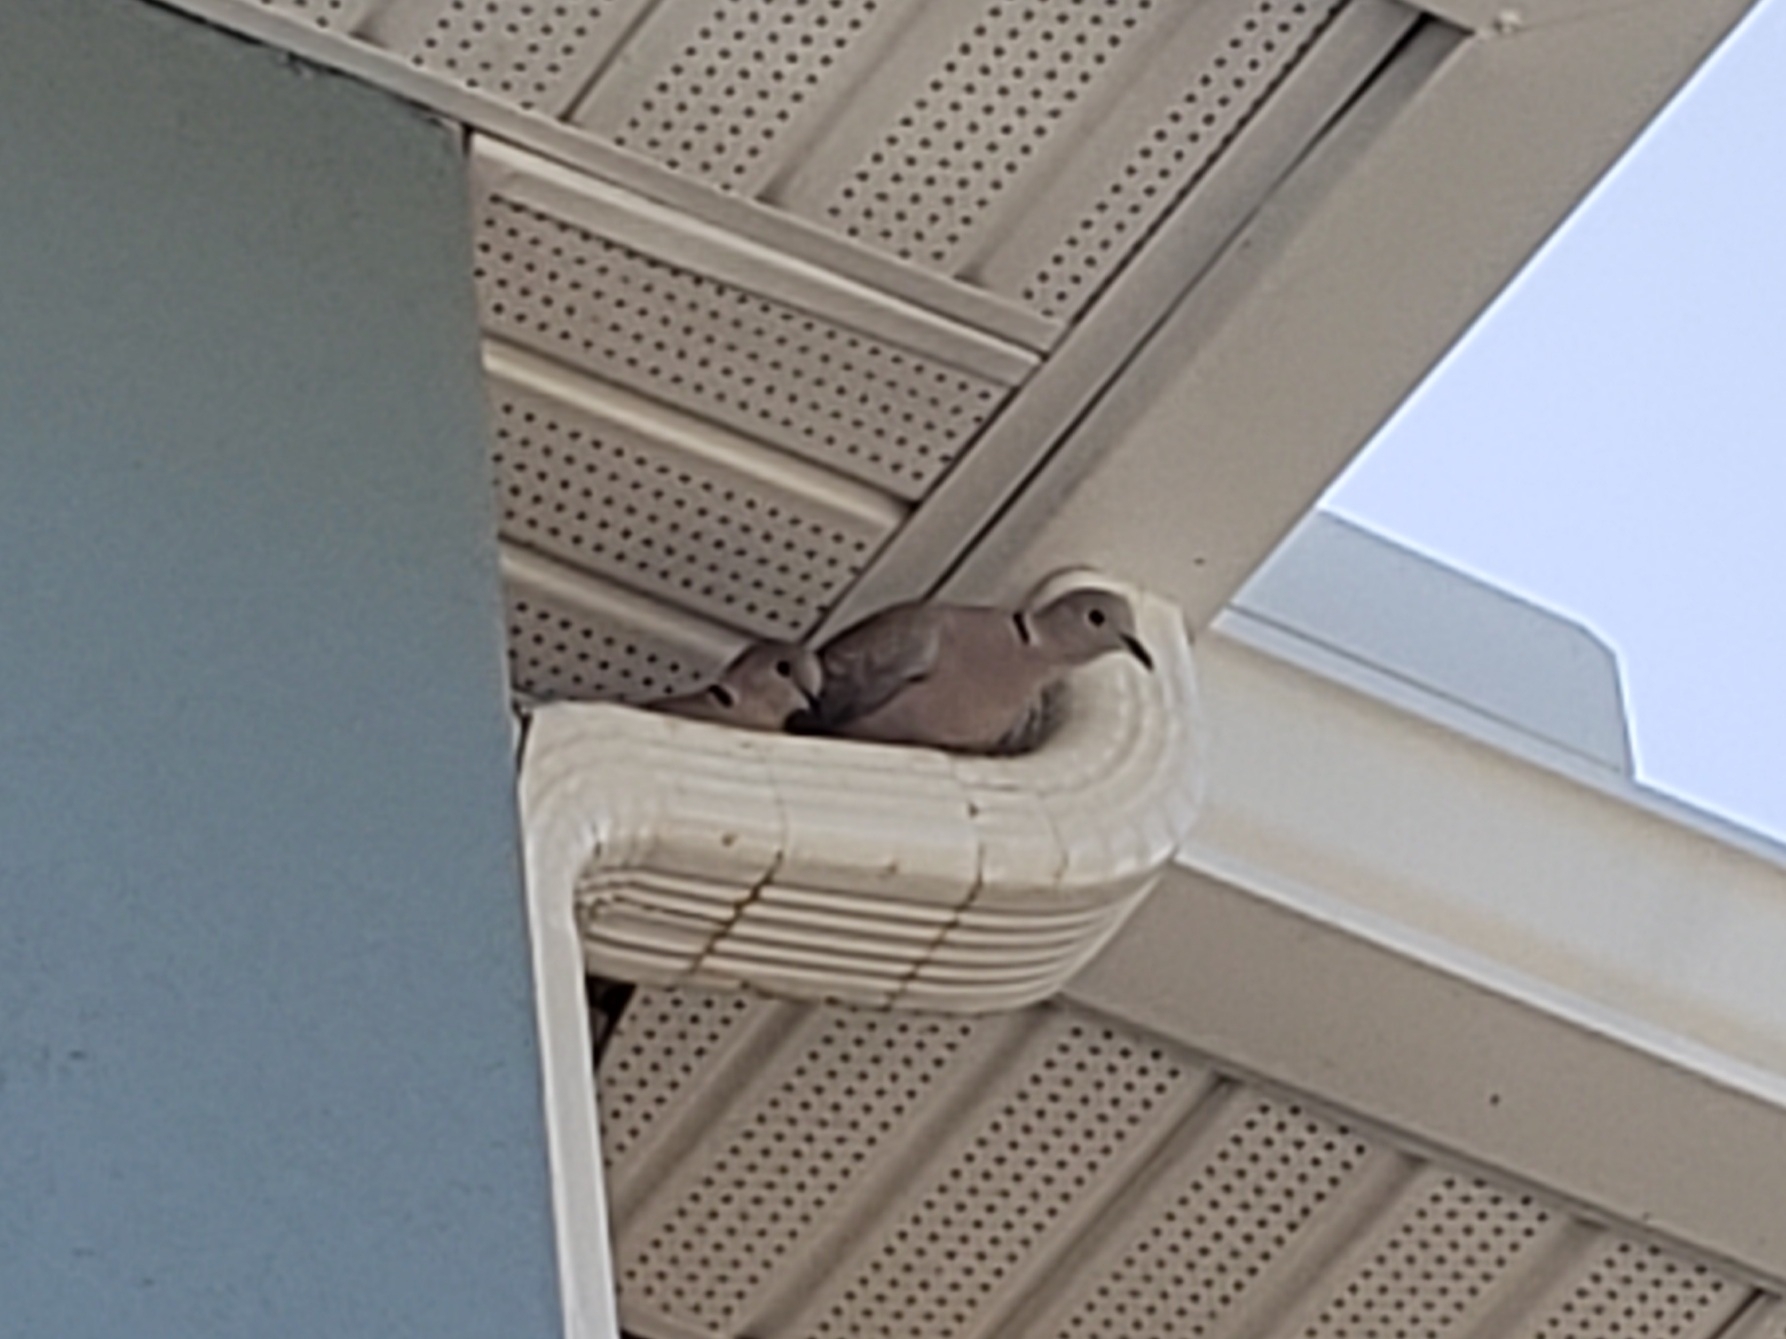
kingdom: Animalia
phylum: Chordata
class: Aves
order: Columbiformes
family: Columbidae
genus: Streptopelia
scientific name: Streptopelia decaocto
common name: Eurasian collared dove
